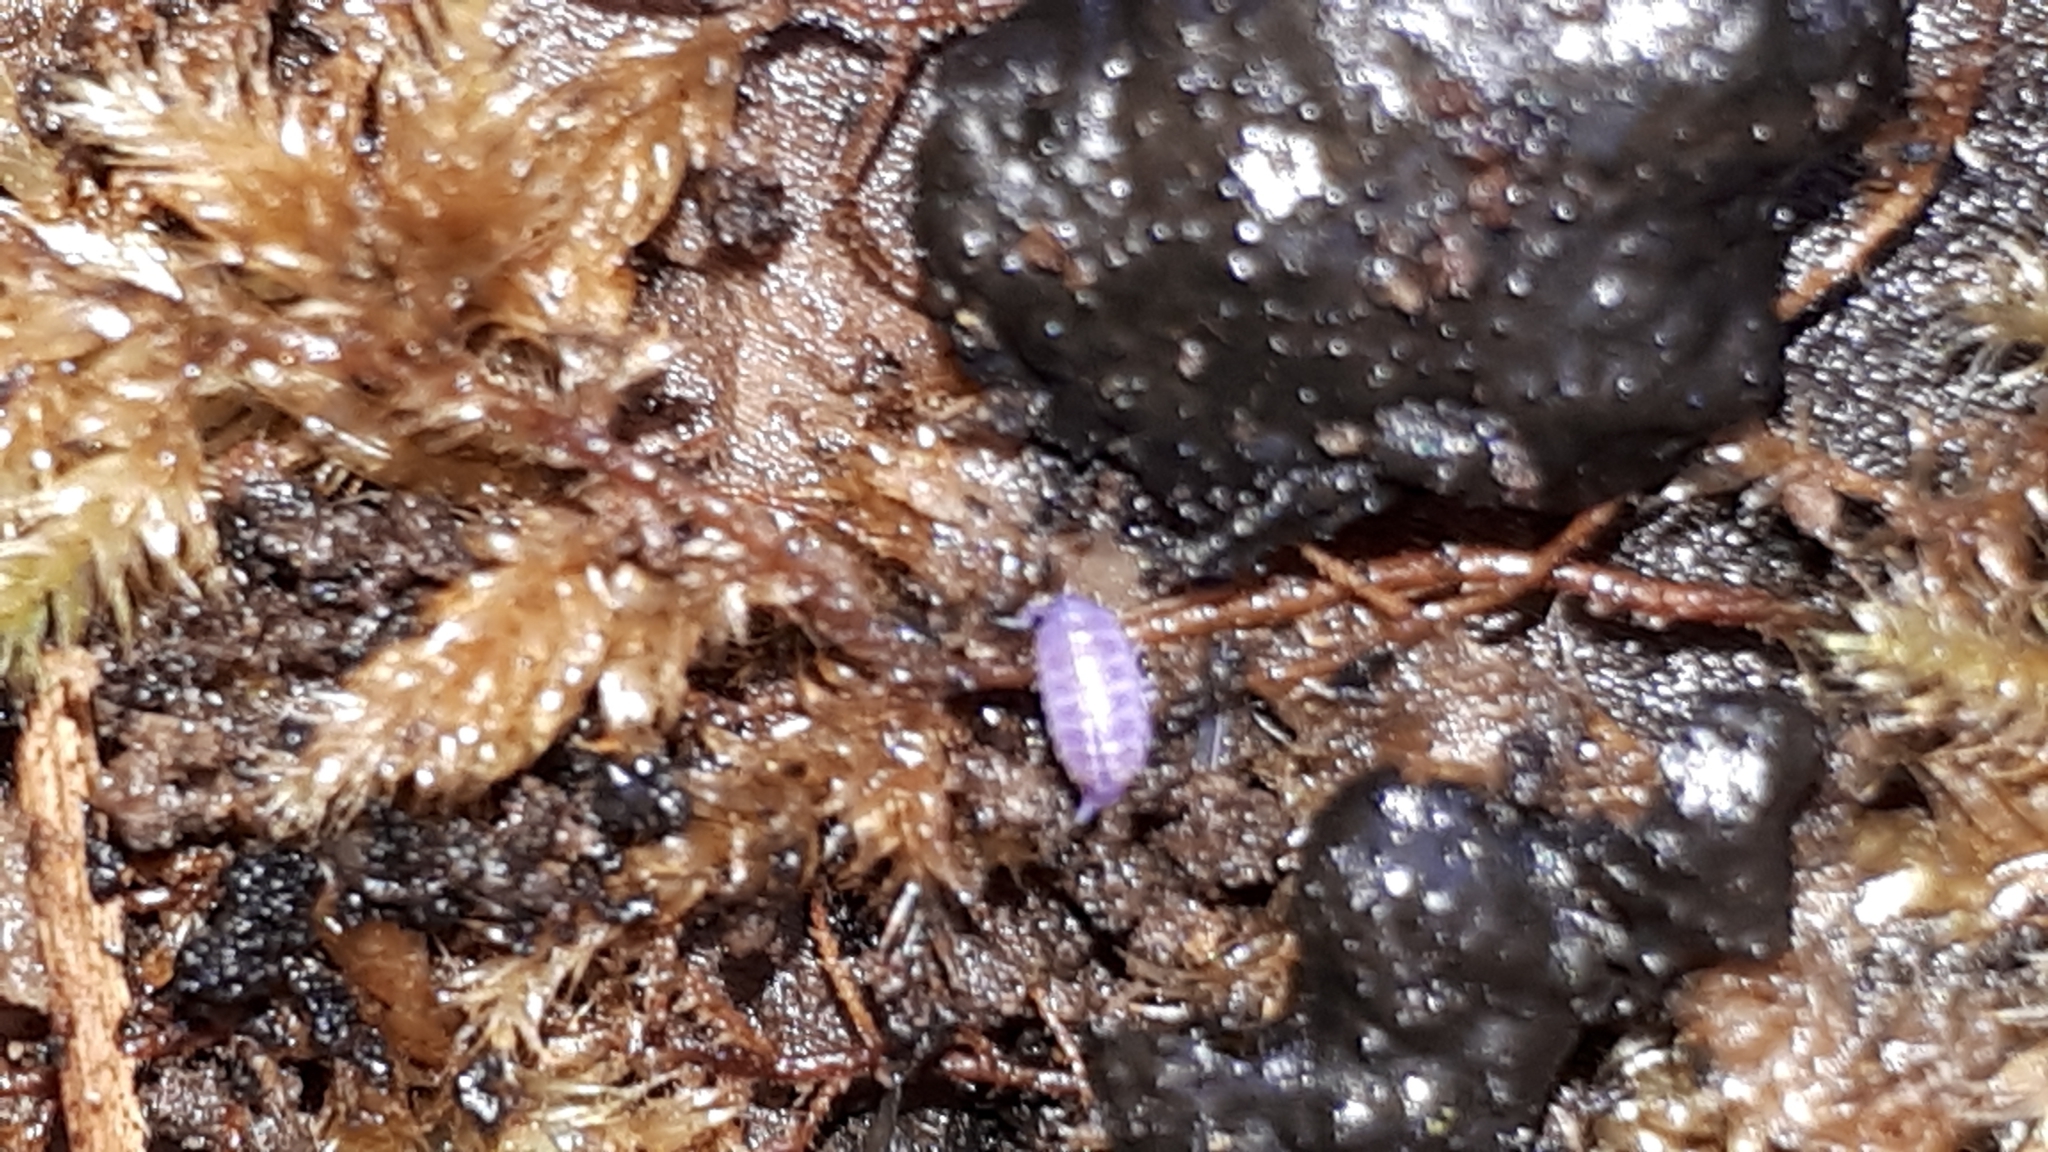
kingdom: Viruses
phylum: Nucleocytoviricota
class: Megaviricetes
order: Pimascovirales
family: Iridoviridae
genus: Iridovirus
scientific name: Iridovirus Invertebrate iridescent virus 31
